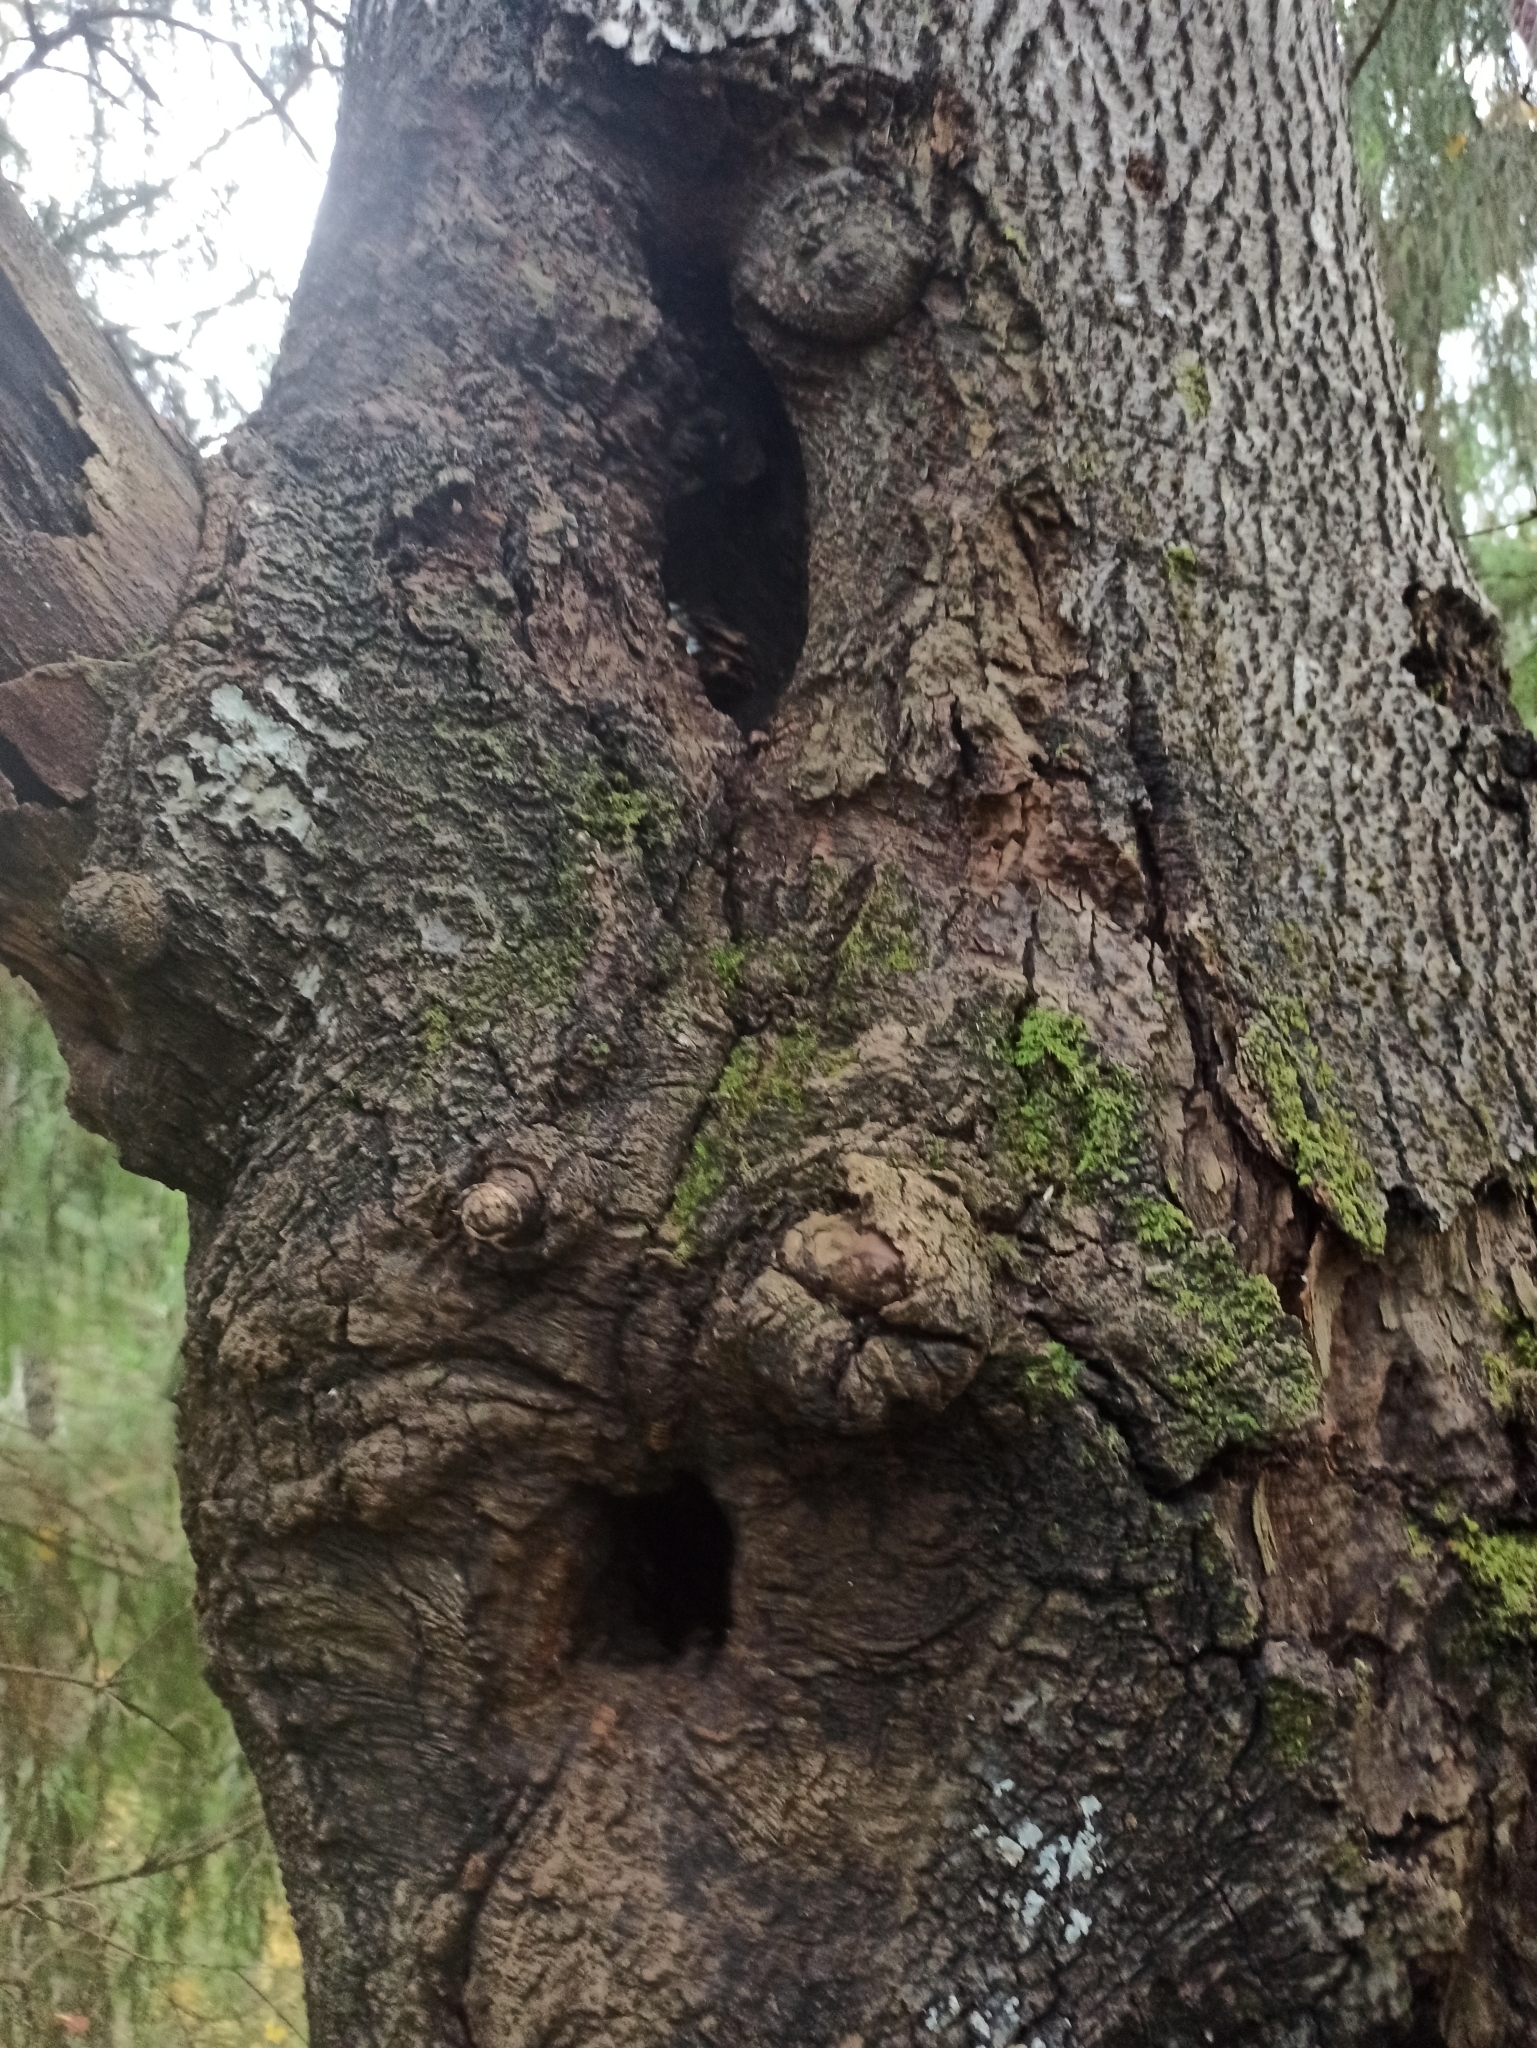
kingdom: Animalia
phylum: Arthropoda
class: Insecta
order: Hymenoptera
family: Apidae
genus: Apis
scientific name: Apis mellifera
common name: Honey bee
